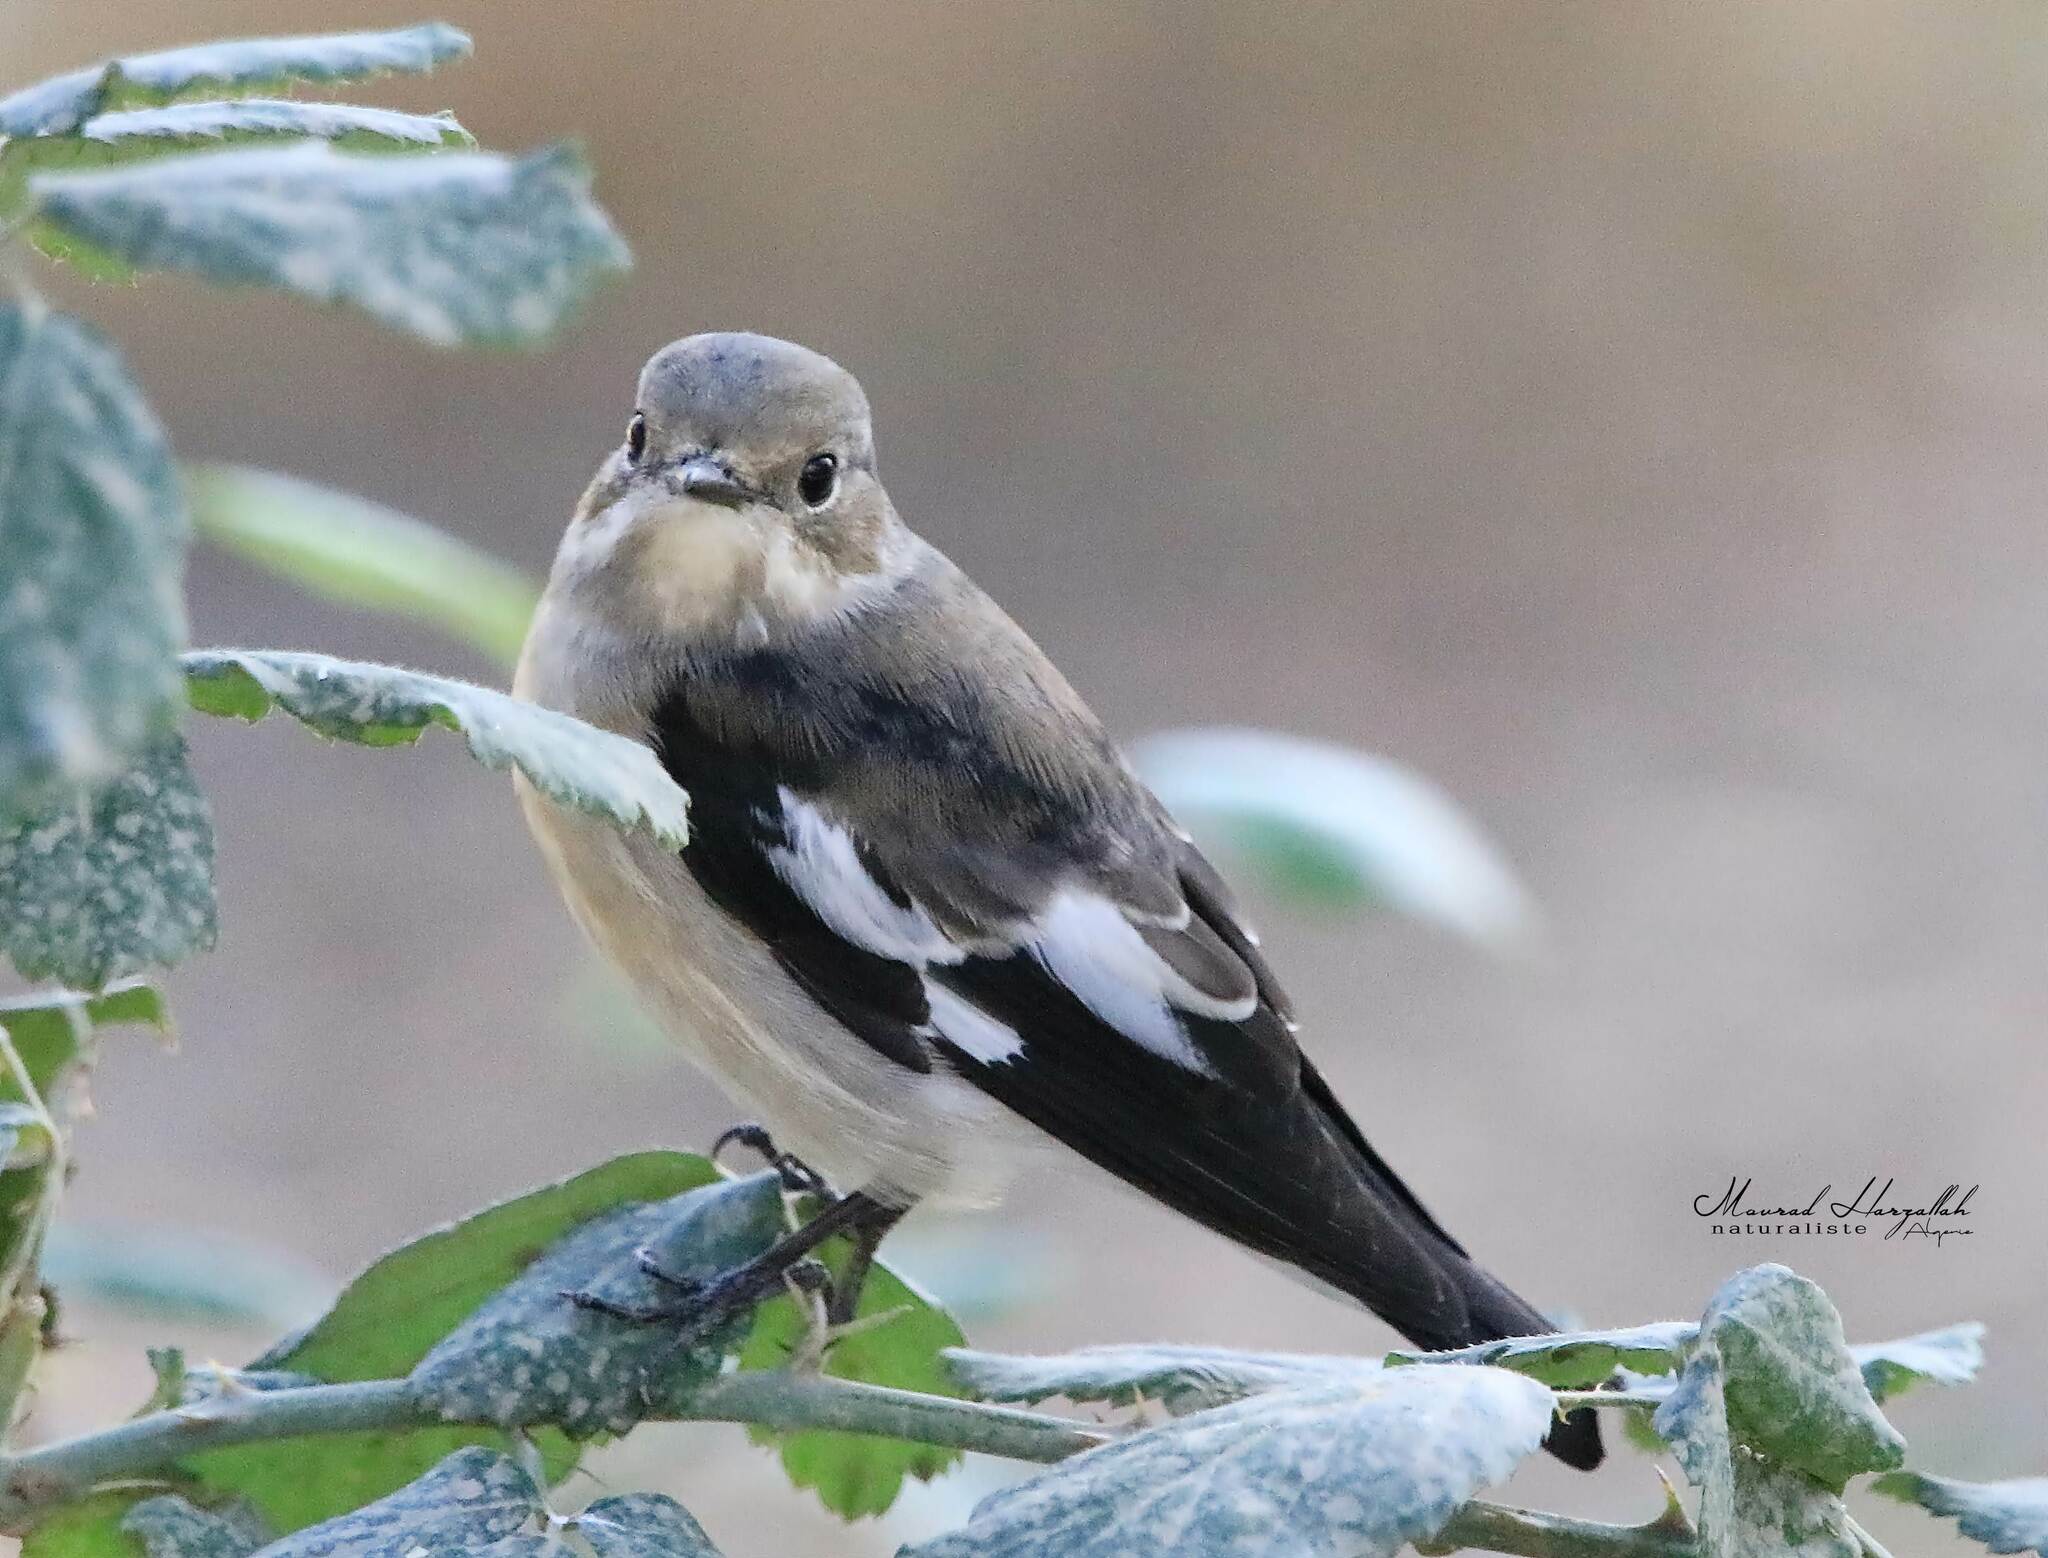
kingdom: Animalia
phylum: Chordata
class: Aves
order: Passeriformes
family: Muscicapidae
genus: Ficedula
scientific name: Ficedula speculigera
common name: Atlas pied flycatcher
